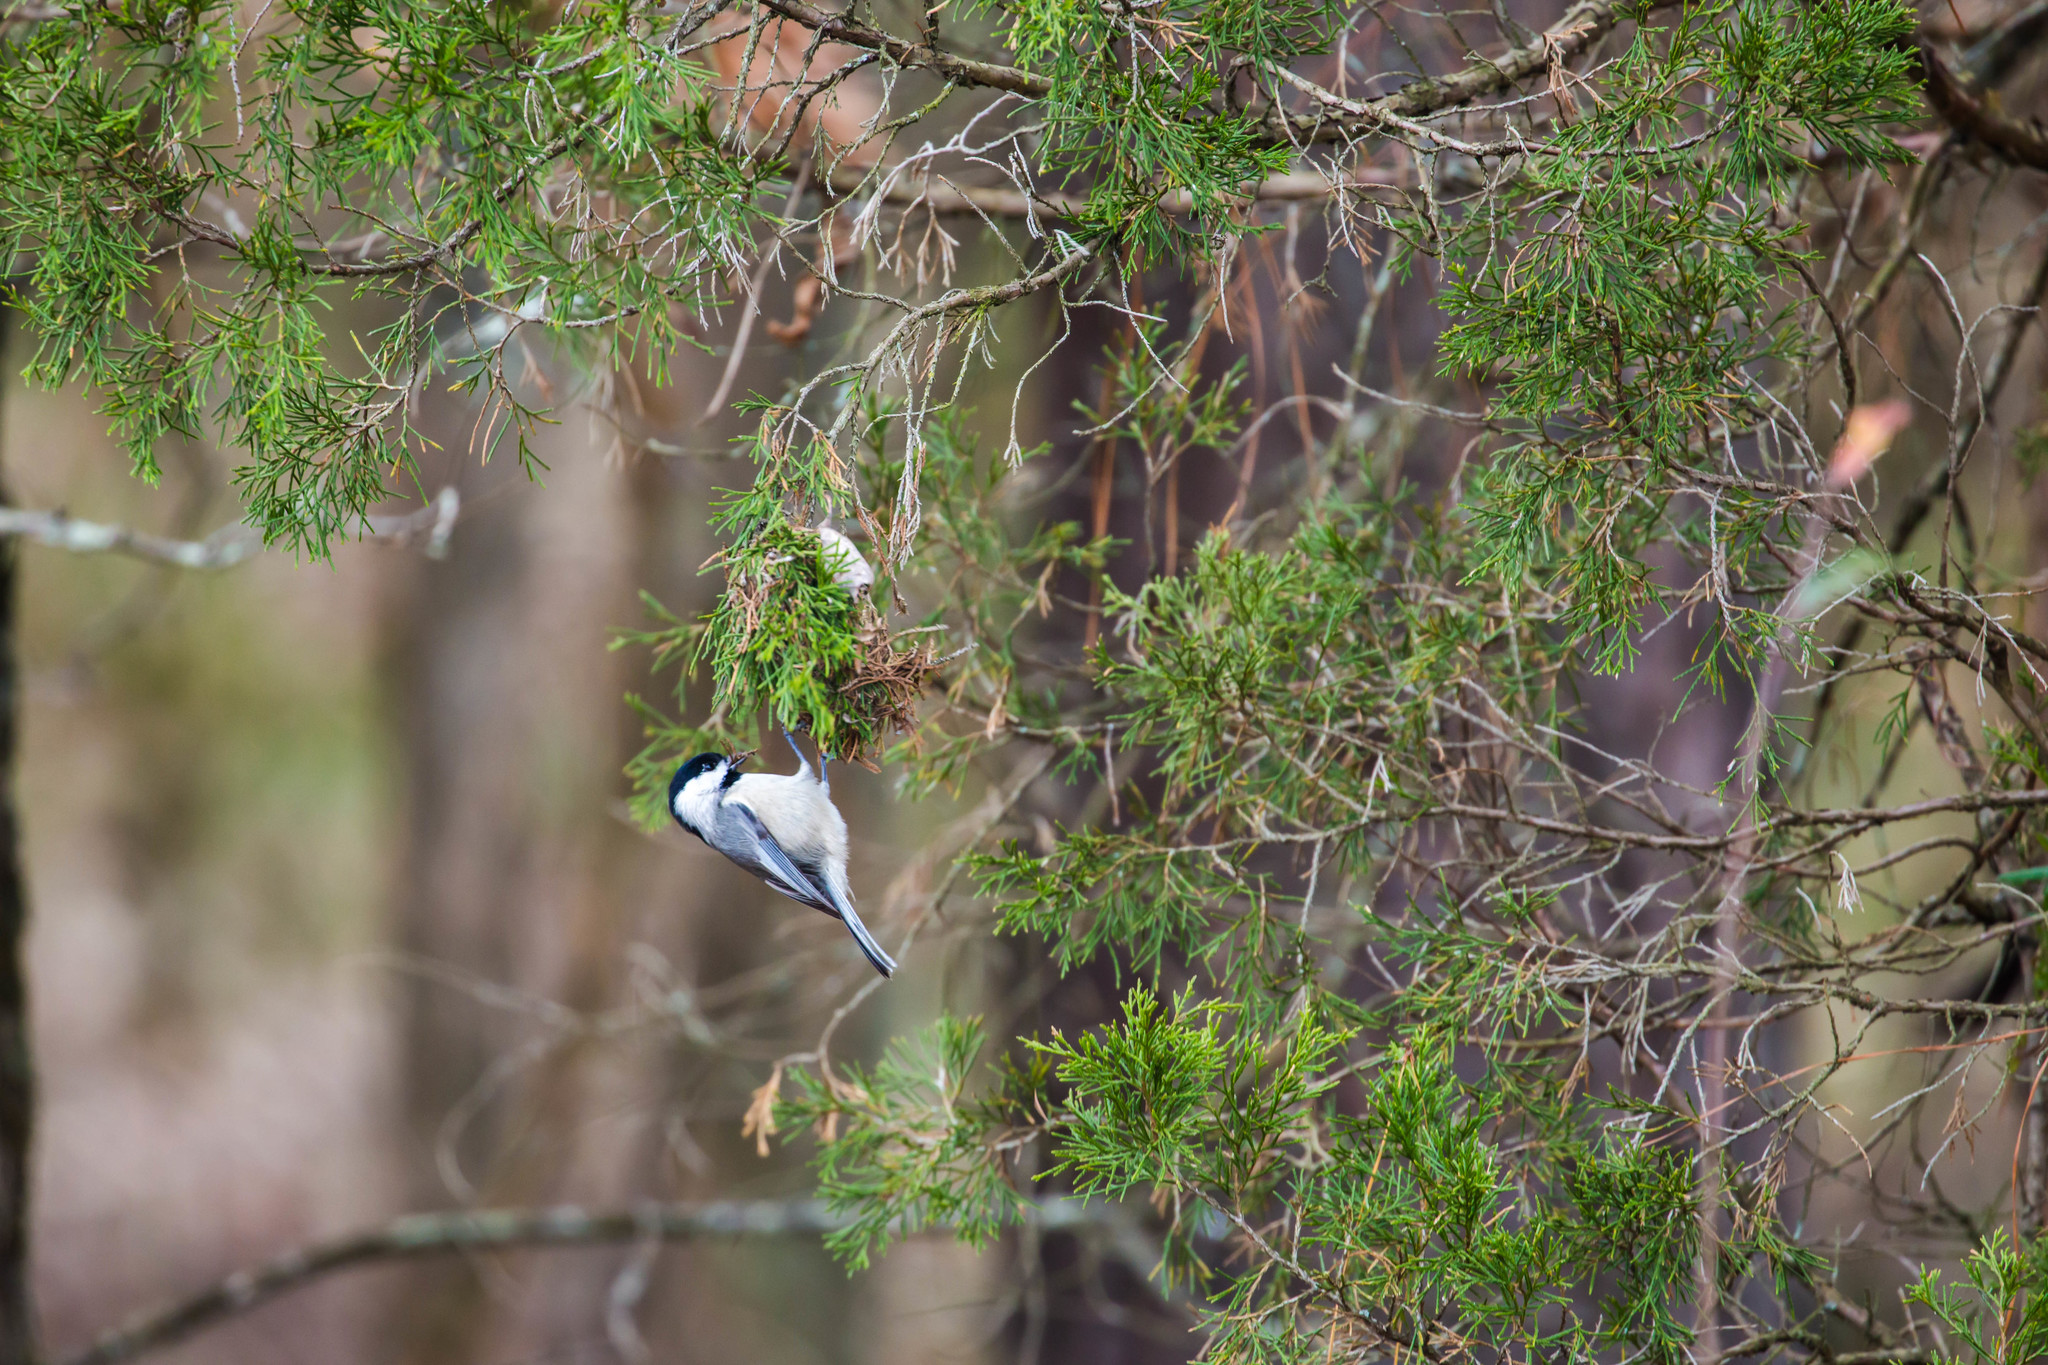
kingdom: Animalia
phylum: Chordata
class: Aves
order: Passeriformes
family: Paridae
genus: Poecile
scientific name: Poecile carolinensis
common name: Carolina chickadee
